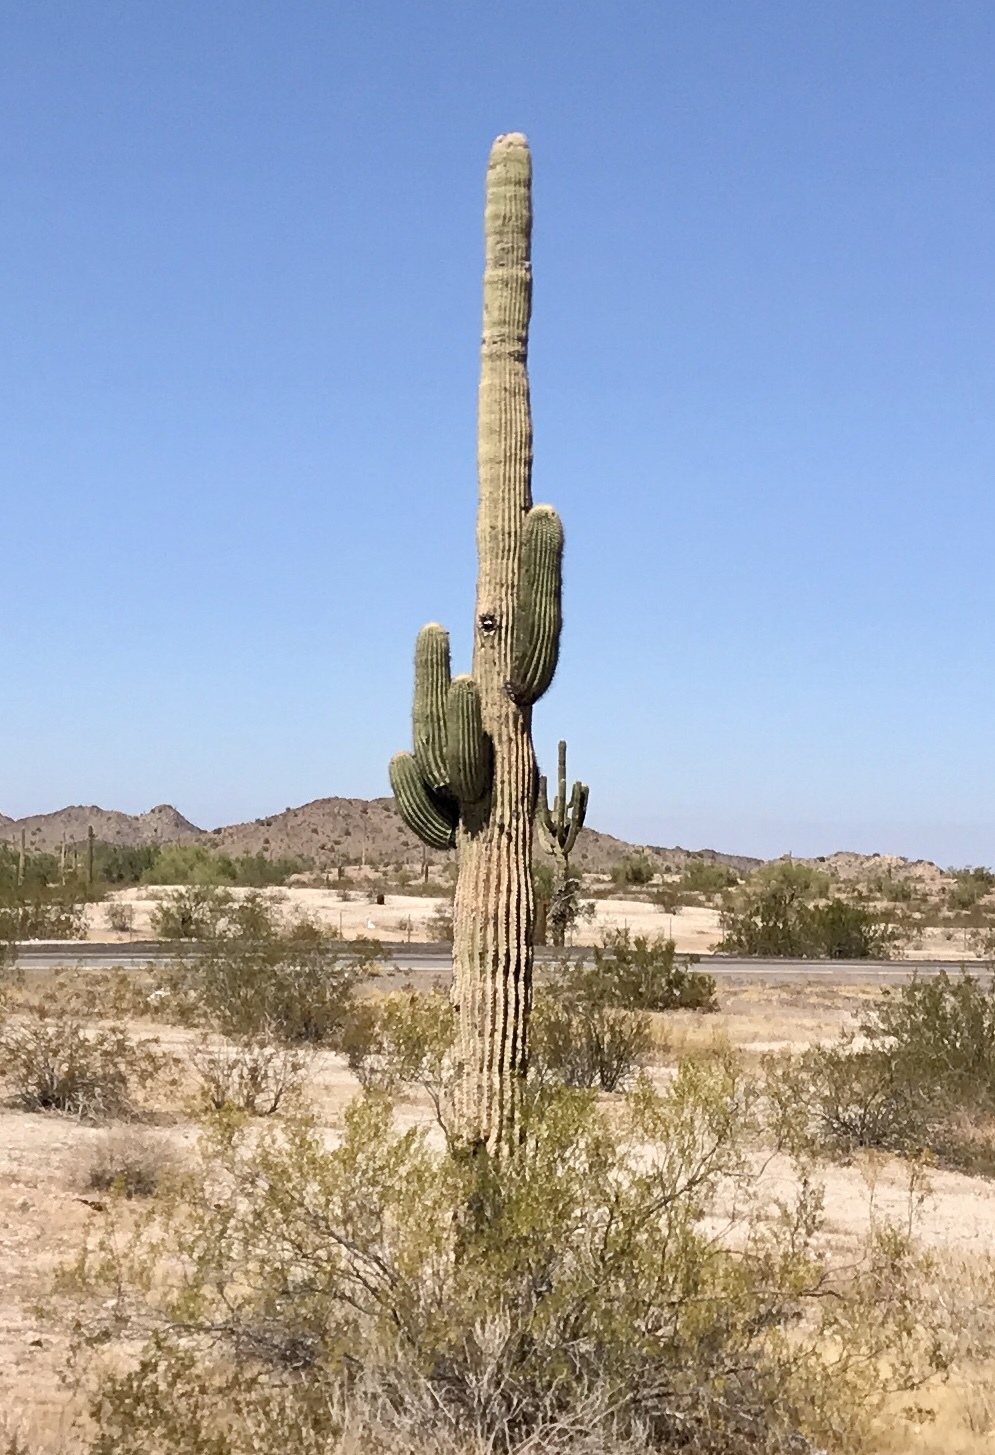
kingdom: Plantae
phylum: Tracheophyta
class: Magnoliopsida
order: Caryophyllales
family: Cactaceae
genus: Carnegiea
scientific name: Carnegiea gigantea
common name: Saguaro
